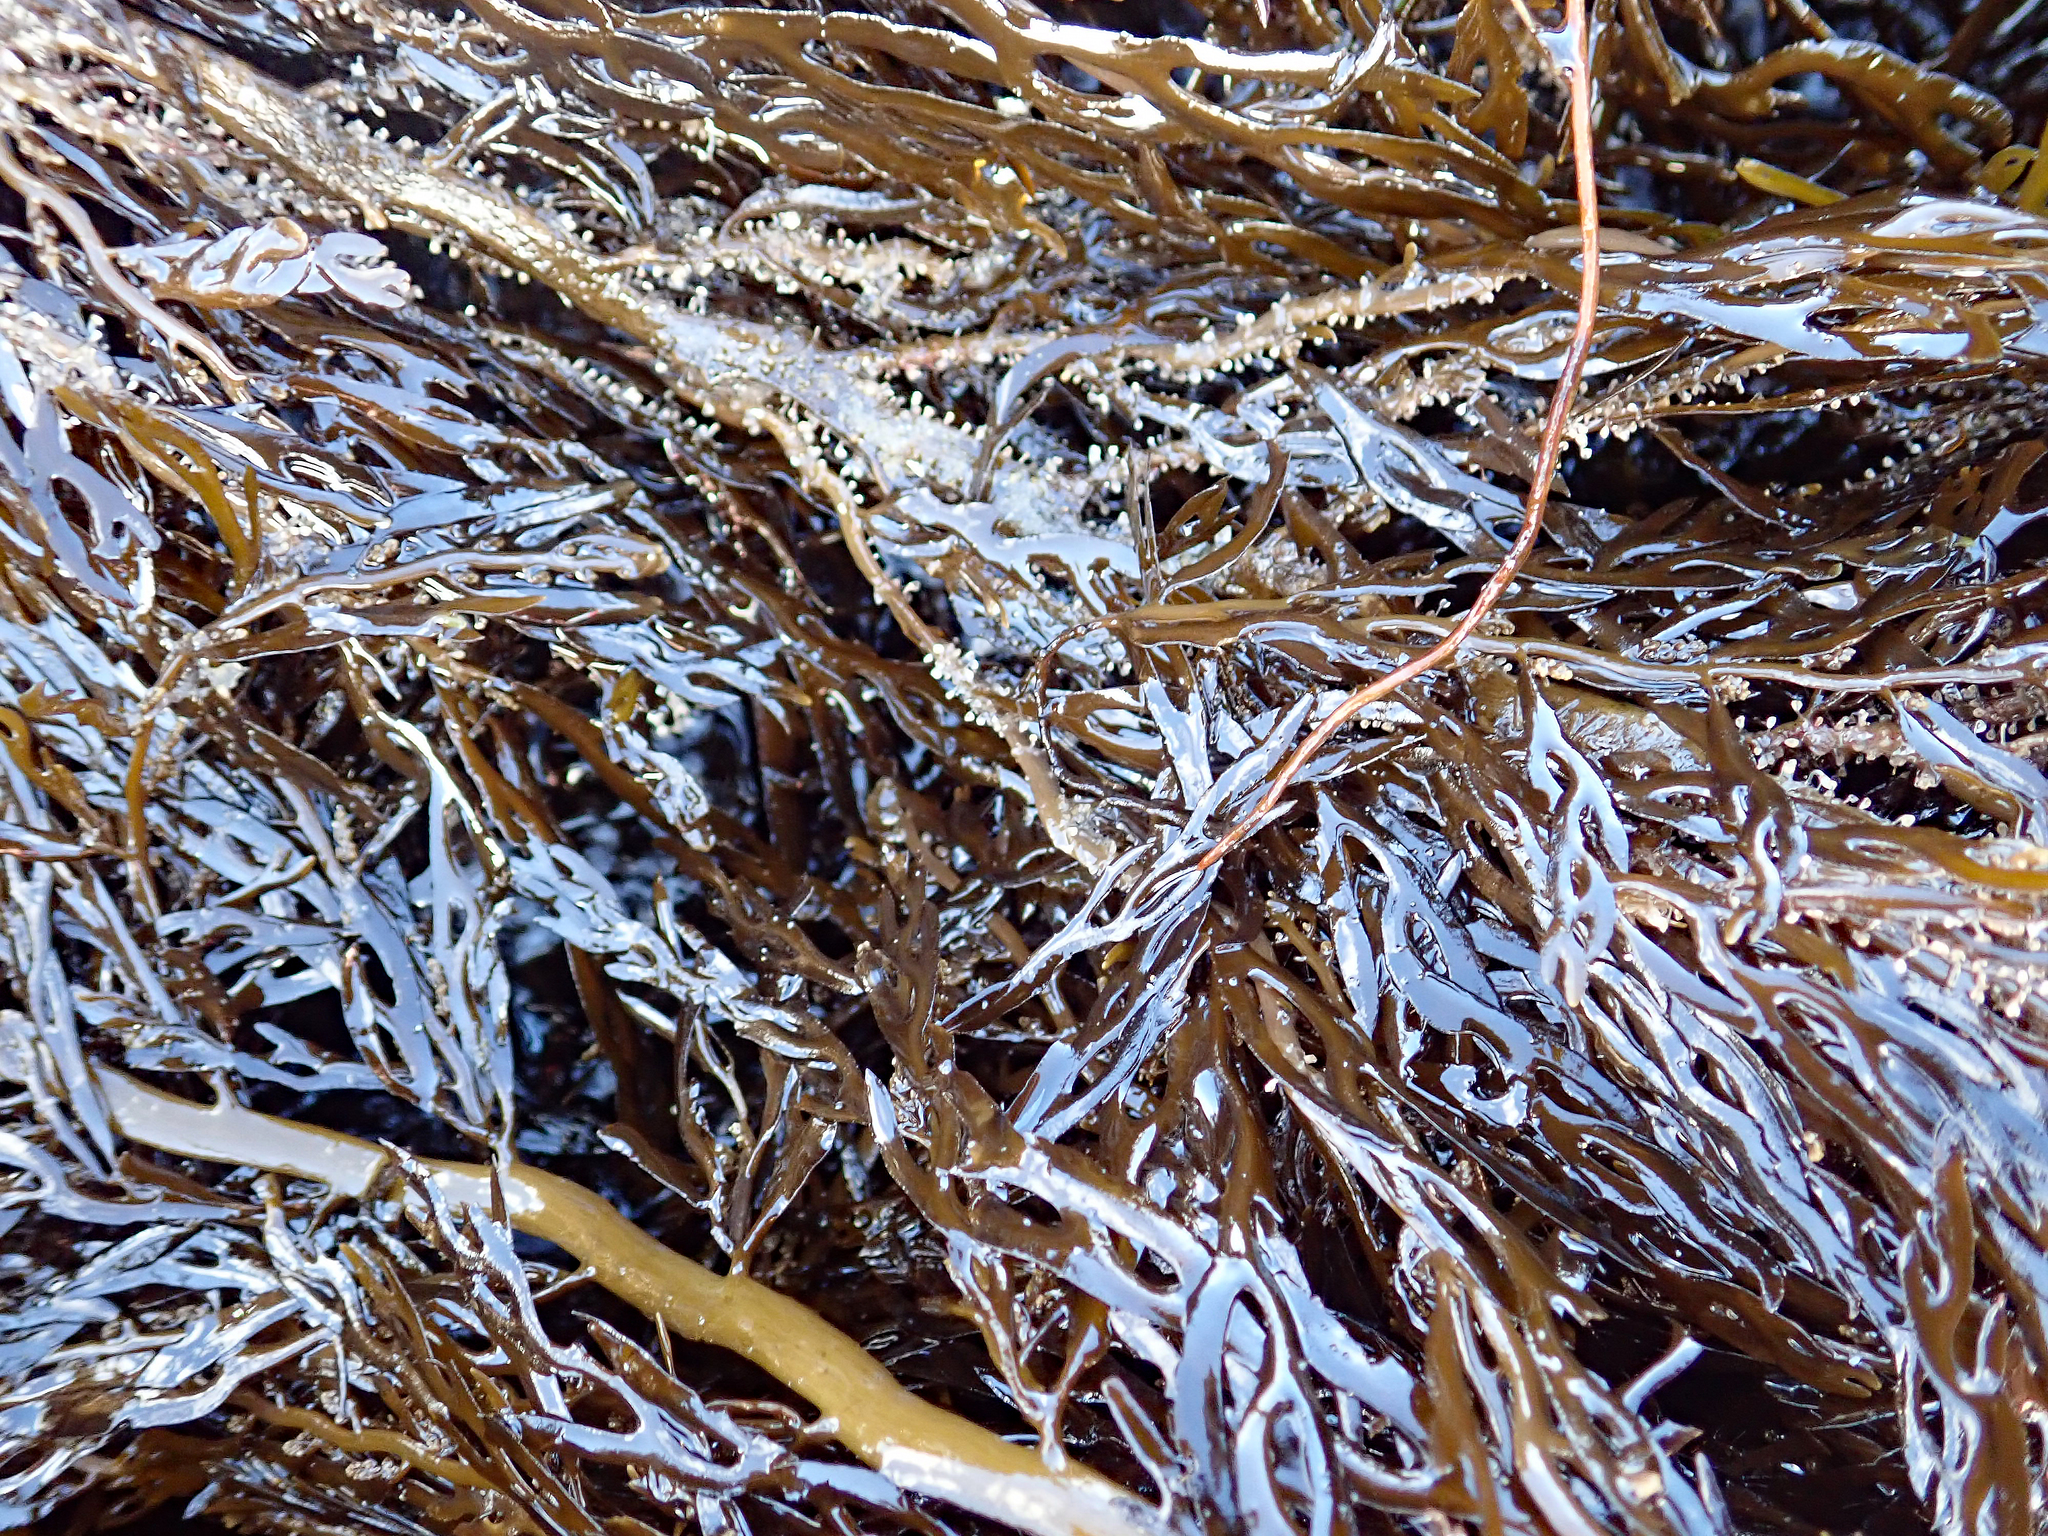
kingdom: Chromista
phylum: Ochrophyta
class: Phaeophyceae
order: Fucales
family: Sargassaceae
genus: Carpophyllum
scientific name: Carpophyllum plumosum
